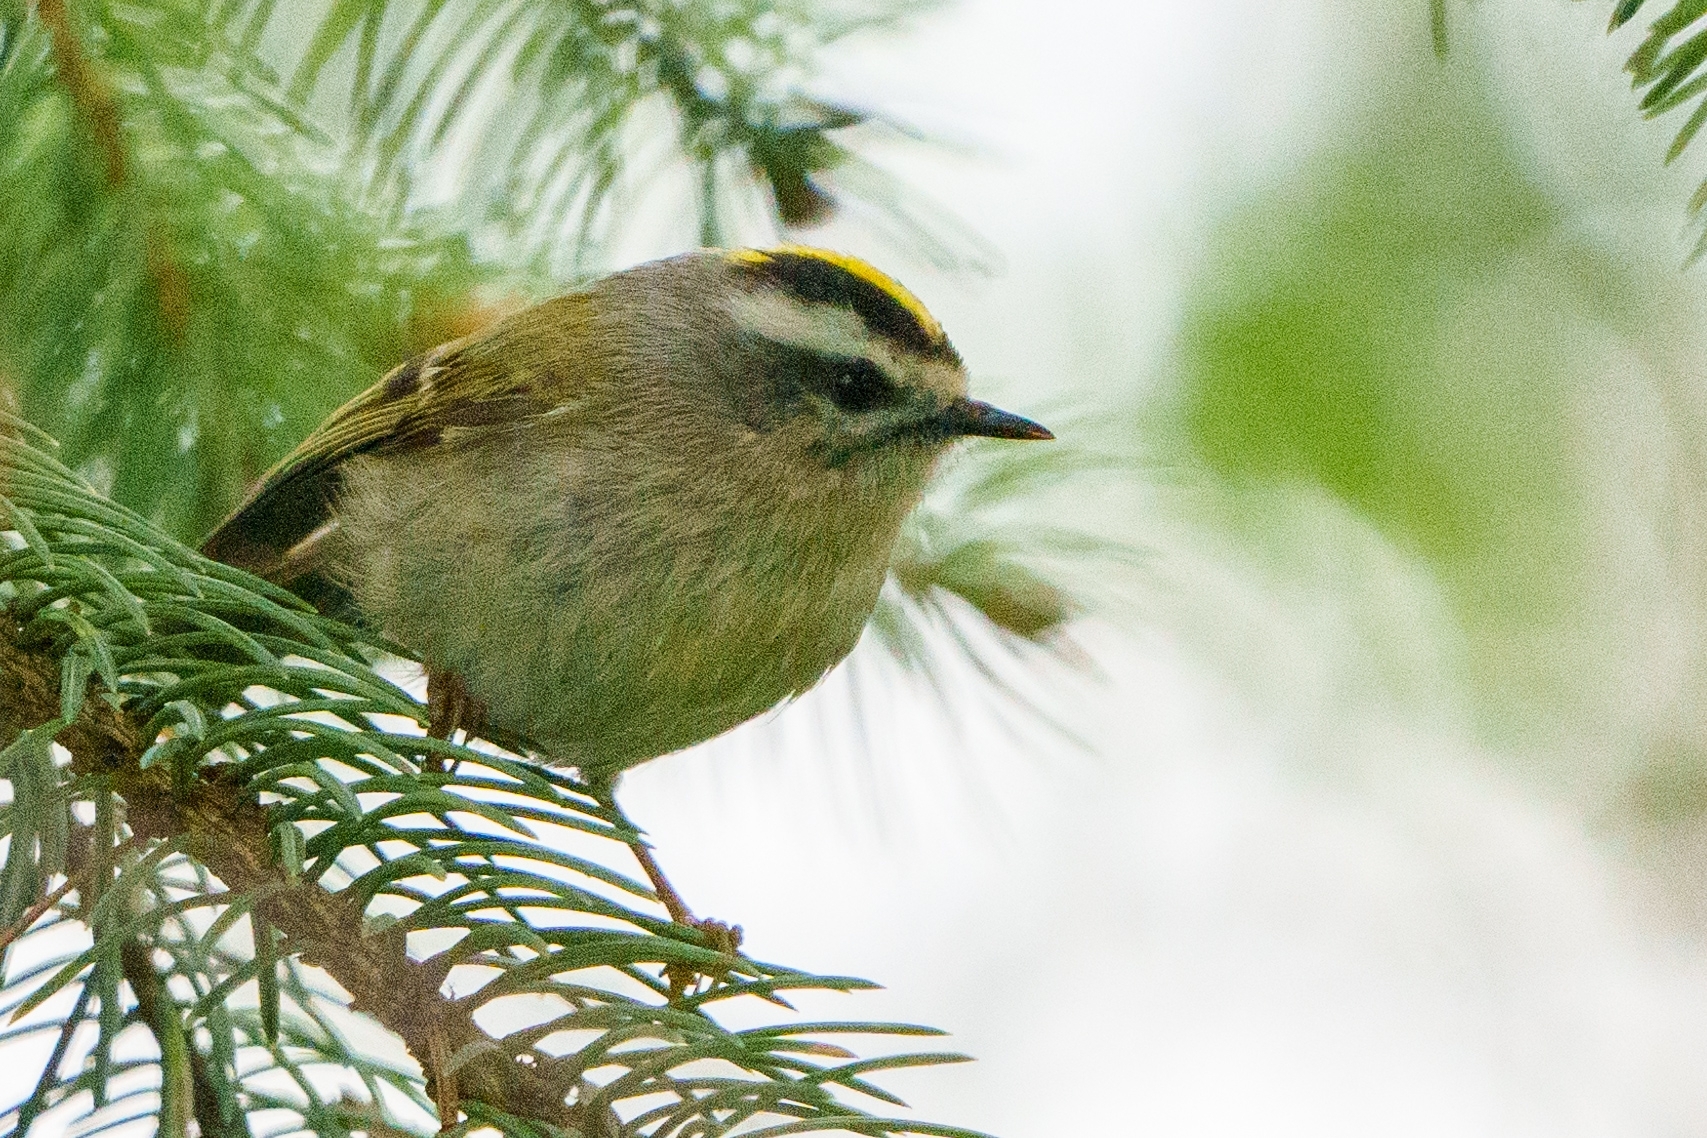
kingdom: Animalia
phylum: Chordata
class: Aves
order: Passeriformes
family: Regulidae
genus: Regulus
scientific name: Regulus satrapa
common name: Golden-crowned kinglet
